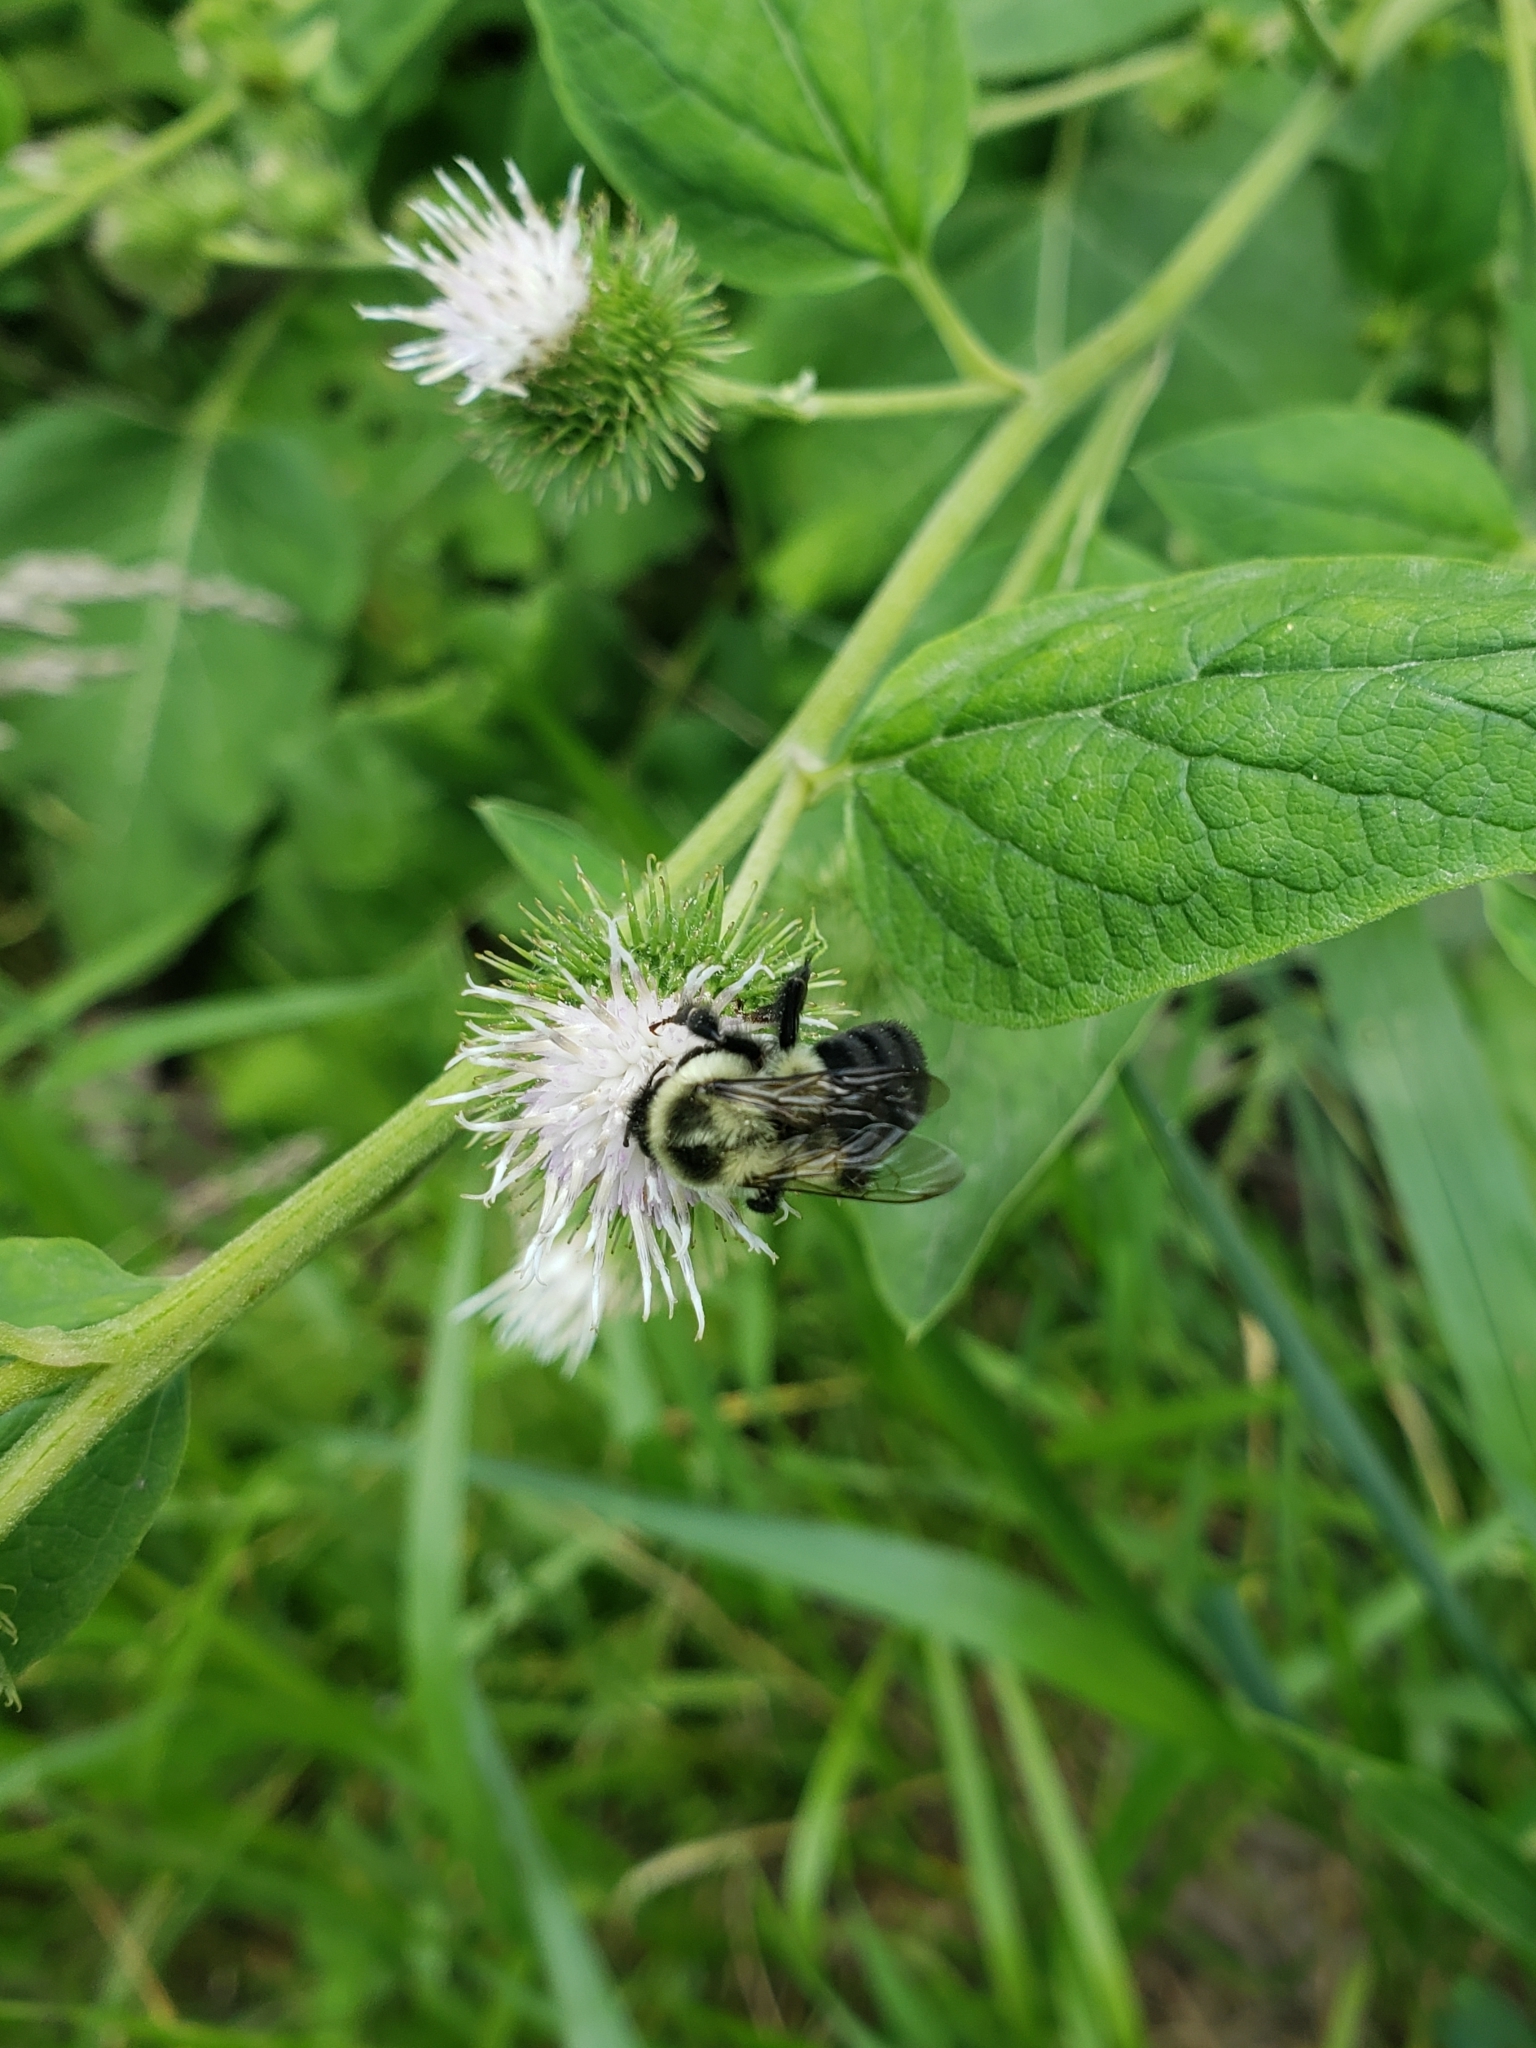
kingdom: Animalia
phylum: Arthropoda
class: Insecta
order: Hymenoptera
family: Apidae
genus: Bombus
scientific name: Bombus impatiens
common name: Common eastern bumble bee
